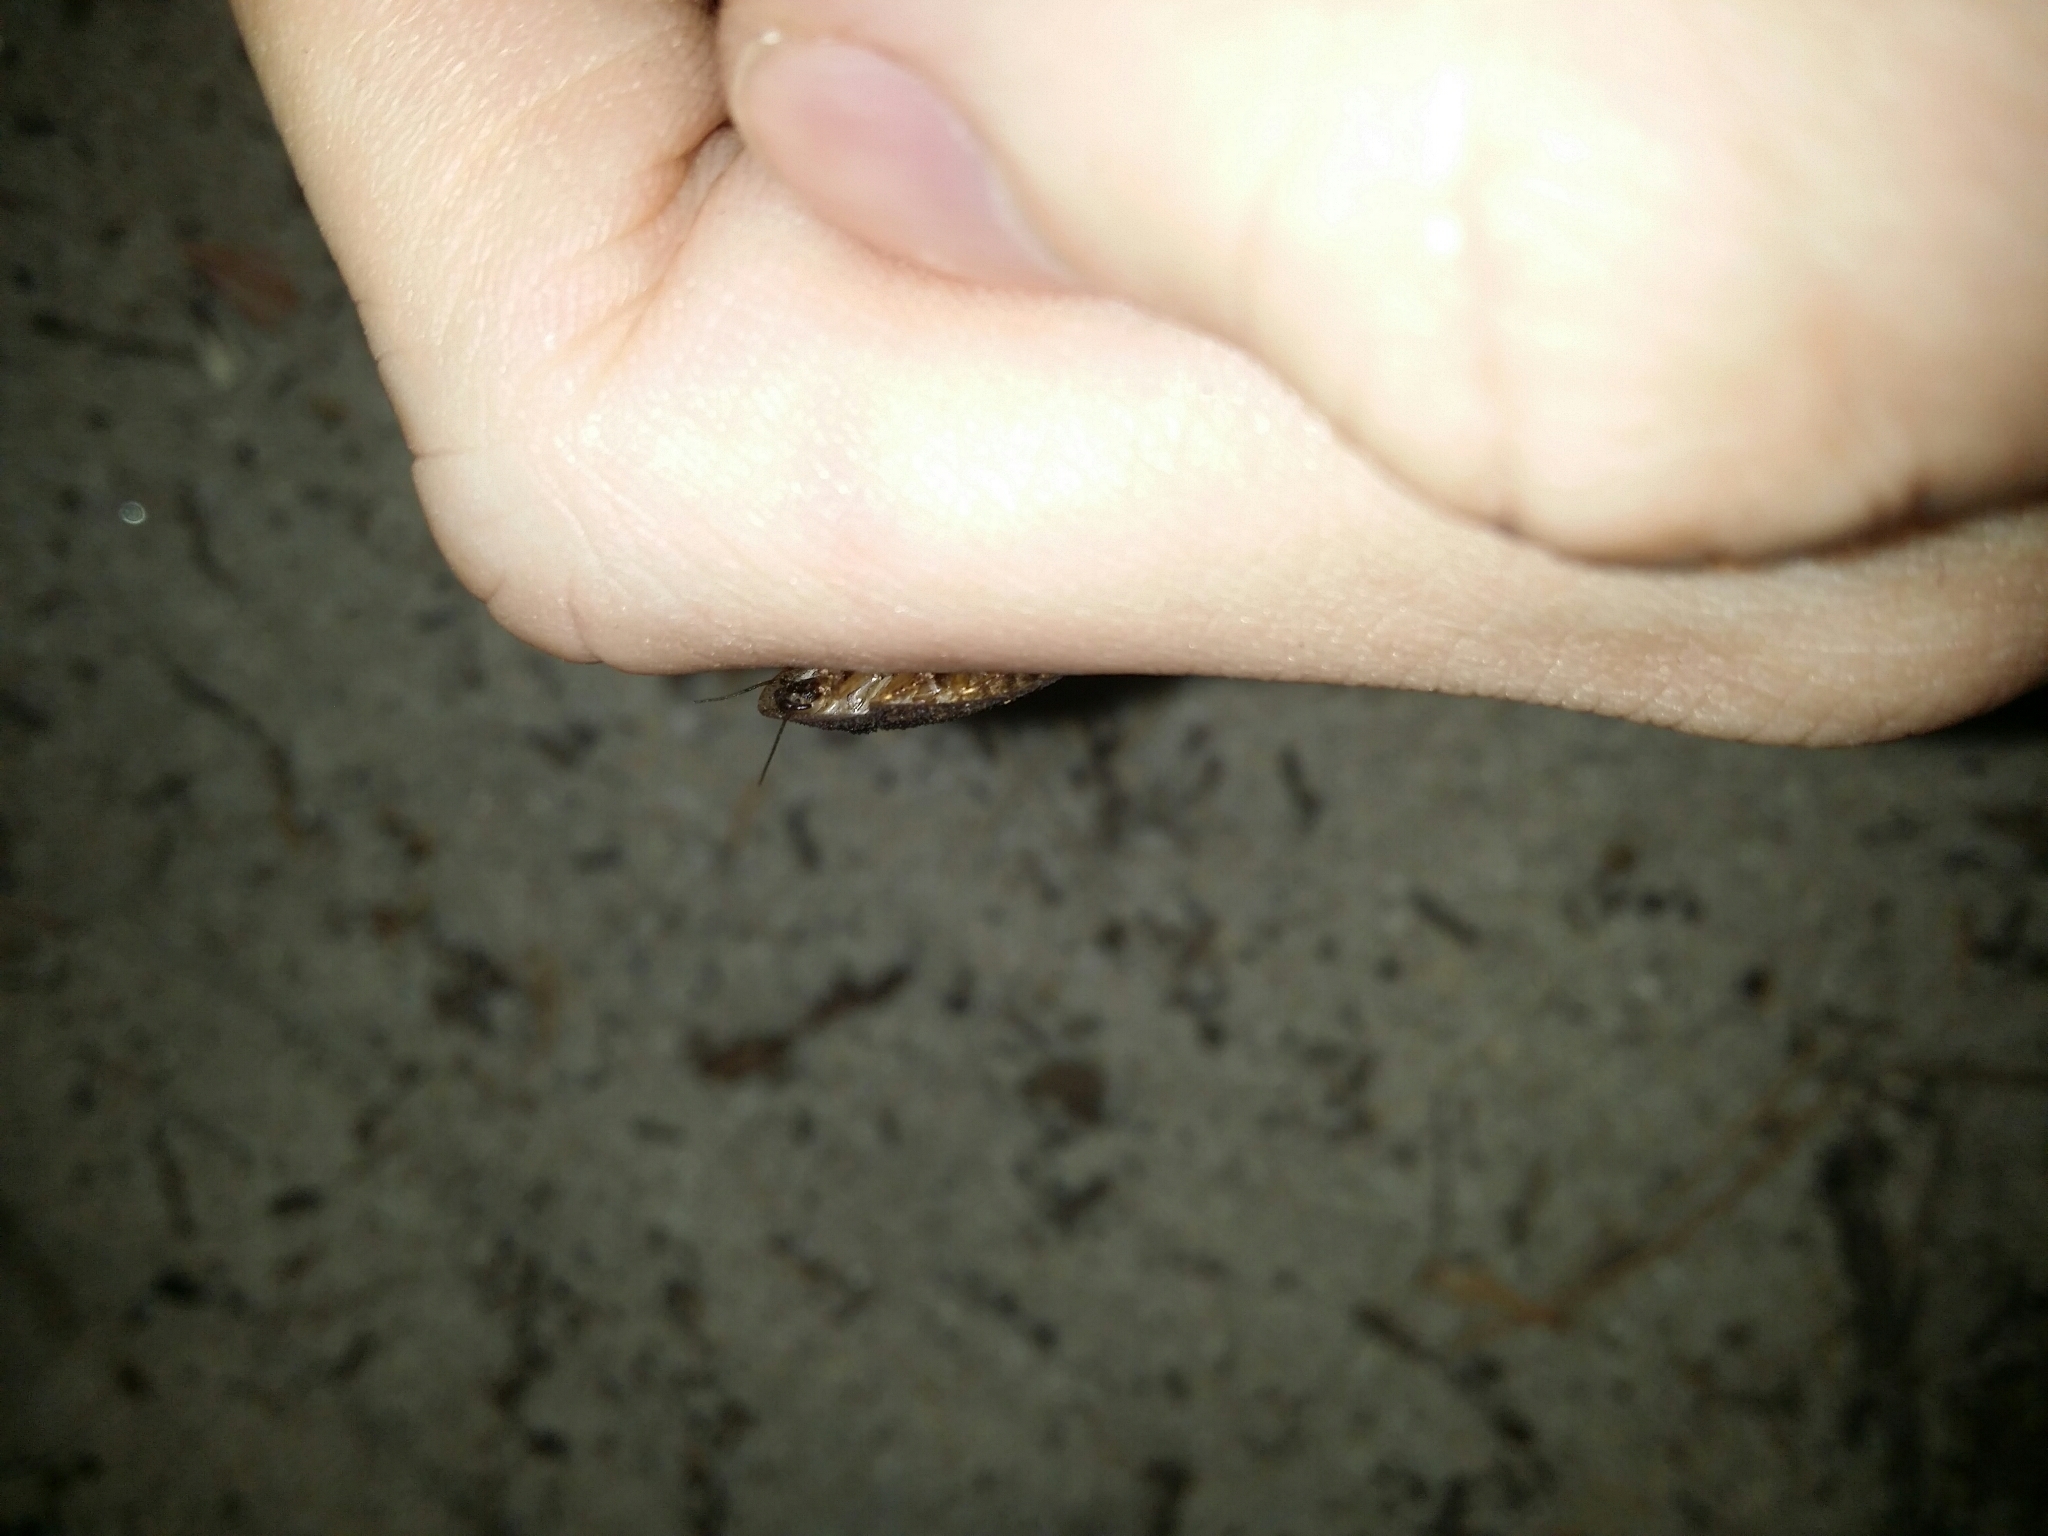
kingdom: Animalia
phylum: Arthropoda
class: Insecta
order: Blattodea
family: Blaberidae
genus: Laxta
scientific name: Laxta rieki
